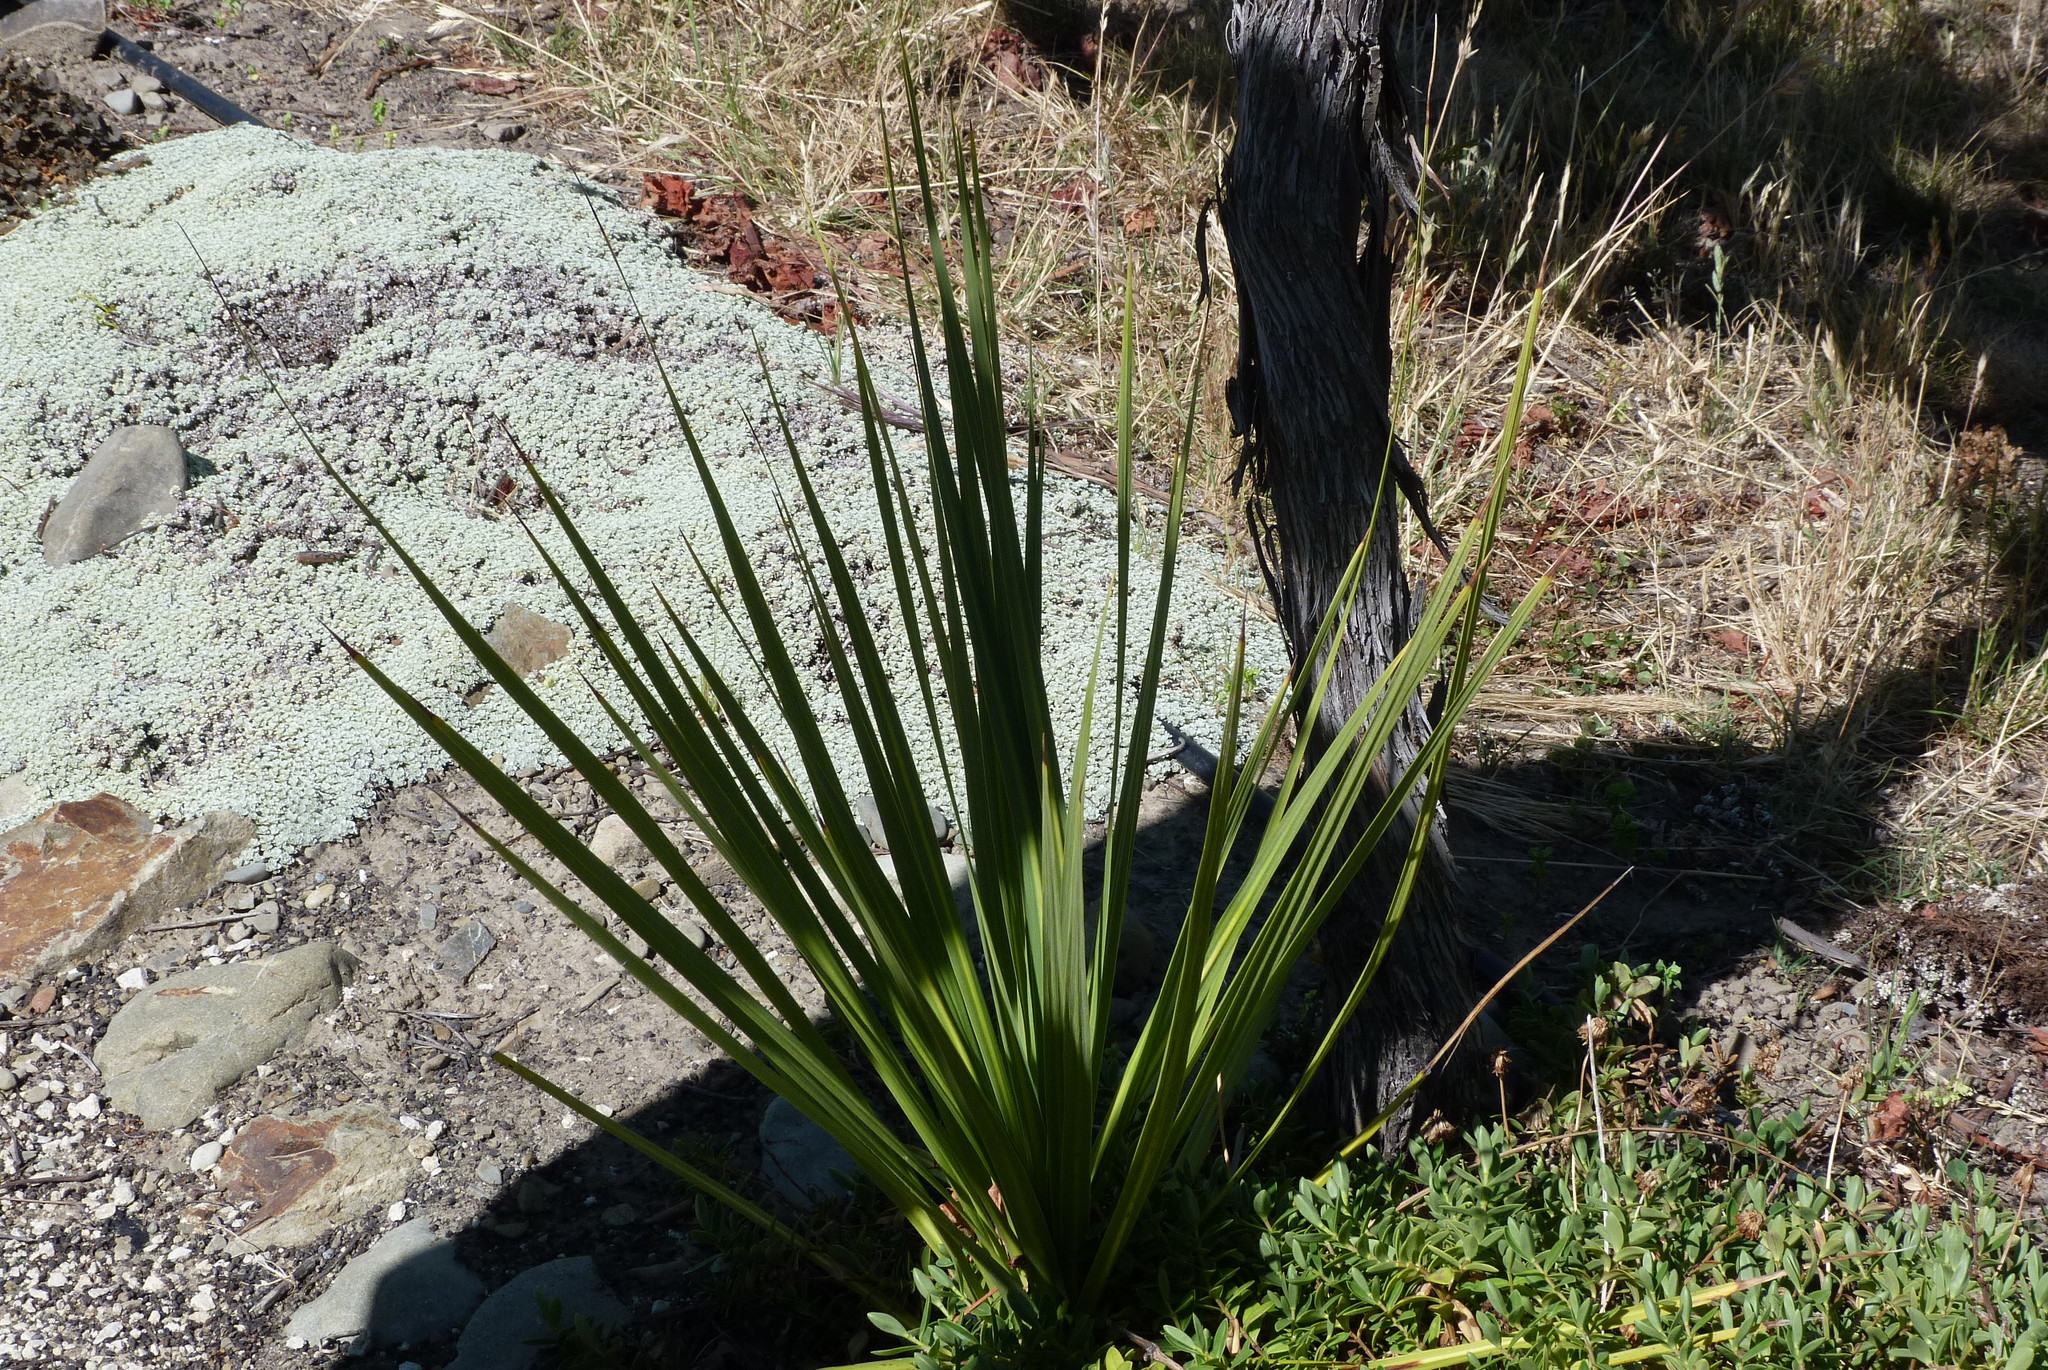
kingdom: Plantae
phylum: Tracheophyta
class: Liliopsida
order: Asparagales
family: Asparagaceae
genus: Cordyline
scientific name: Cordyline australis
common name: Cabbage-palm
